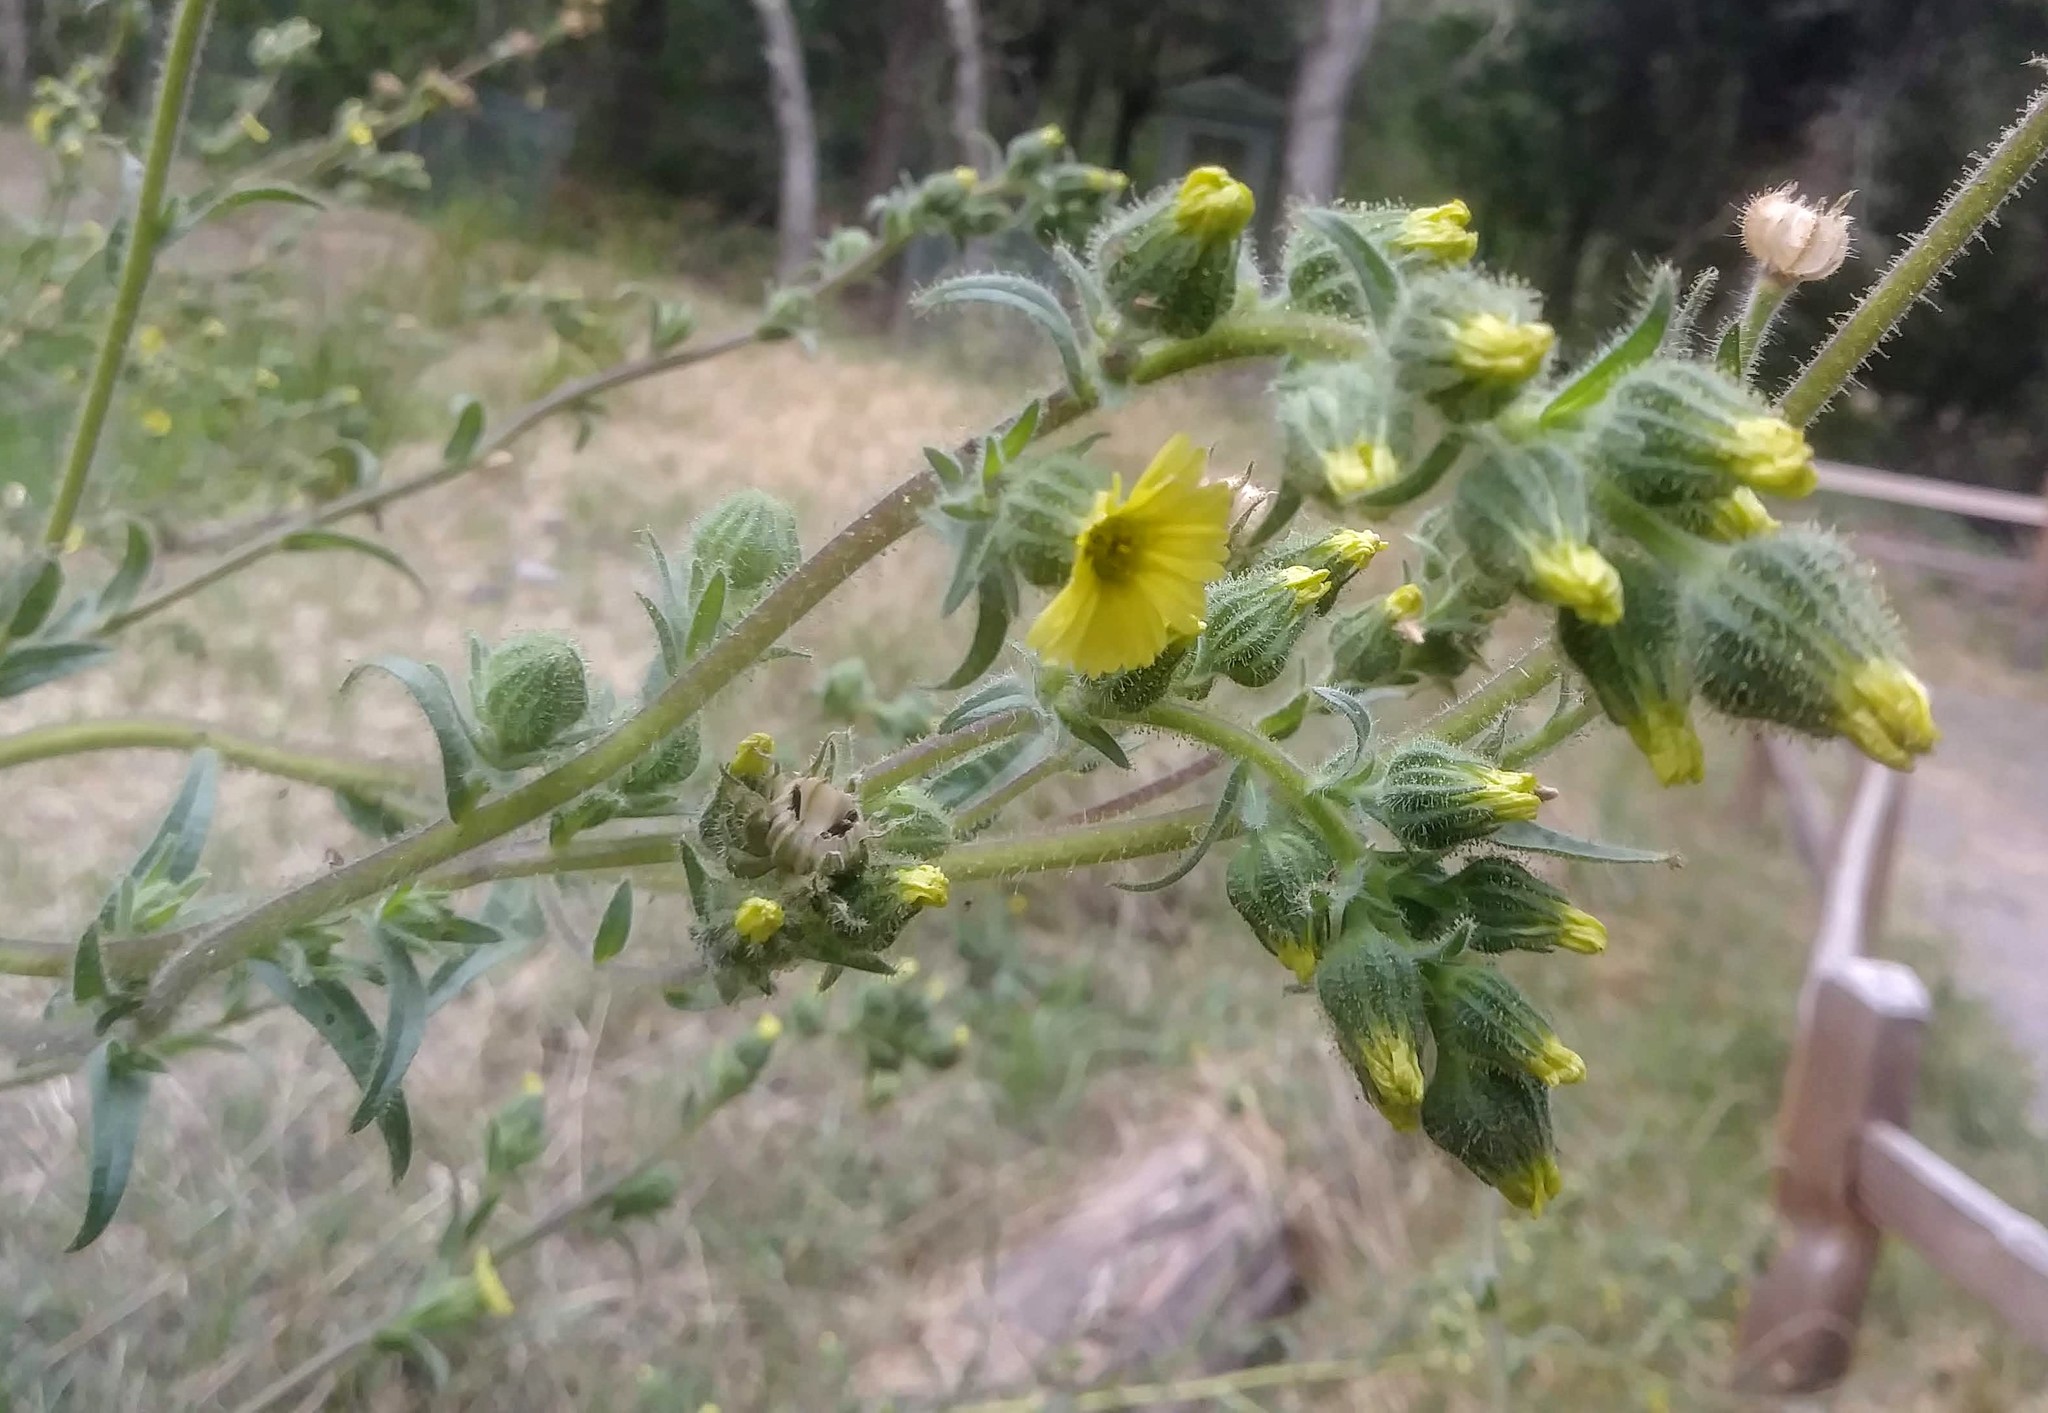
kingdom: Plantae
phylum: Tracheophyta
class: Magnoliopsida
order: Asterales
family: Asteraceae
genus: Madia
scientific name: Madia sativa
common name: Coast tarweed
